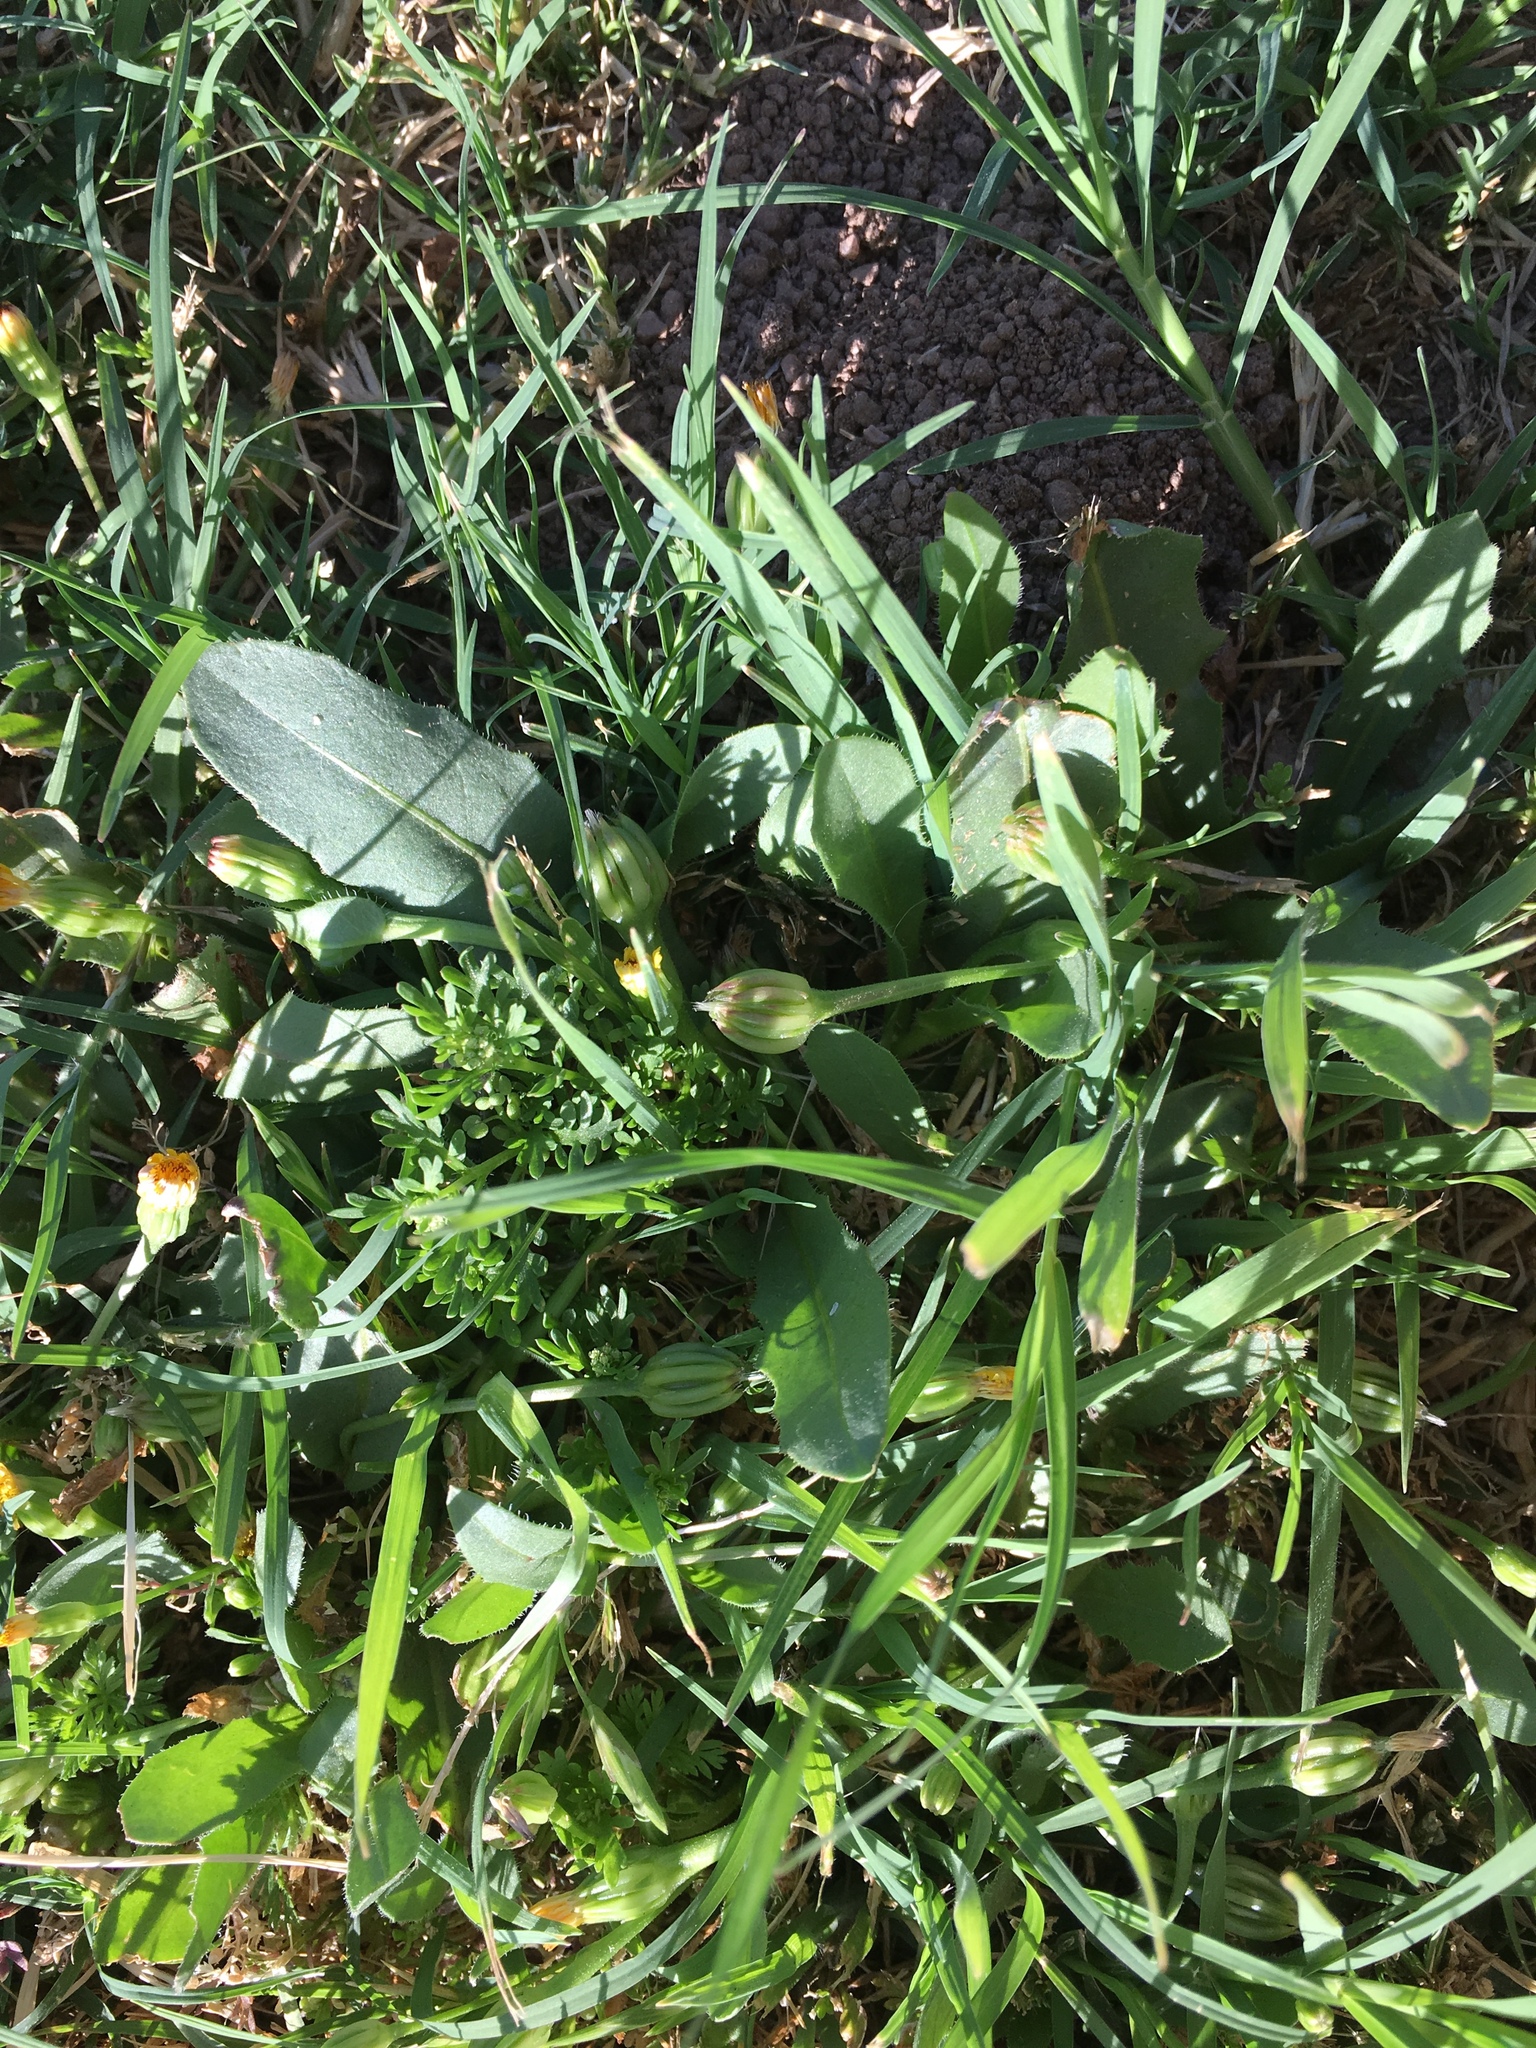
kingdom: Plantae
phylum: Tracheophyta
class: Magnoliopsida
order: Asterales
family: Asteraceae
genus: Hedypnois
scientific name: Hedypnois rhagadioloides
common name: Cretan weed
